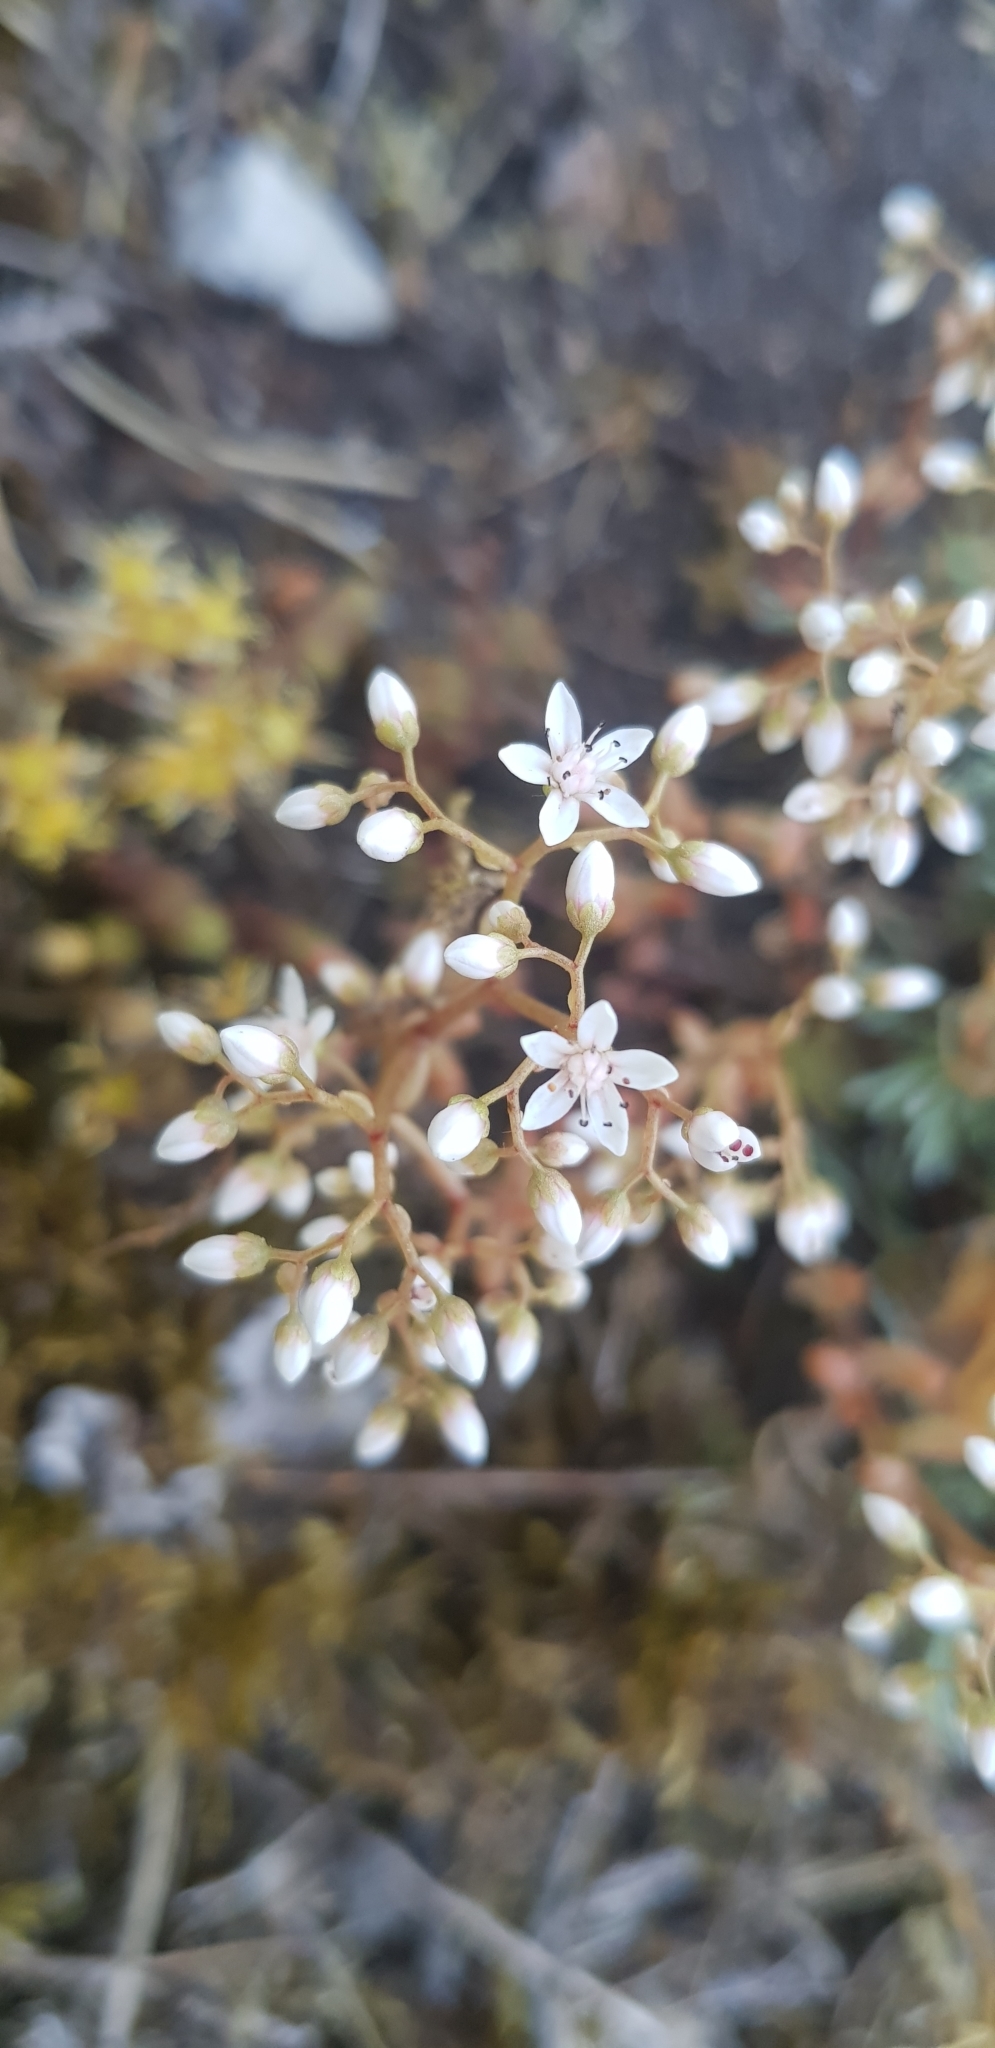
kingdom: Plantae
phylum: Tracheophyta
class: Magnoliopsida
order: Saxifragales
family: Crassulaceae
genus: Sedum
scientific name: Sedum album
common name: White stonecrop
